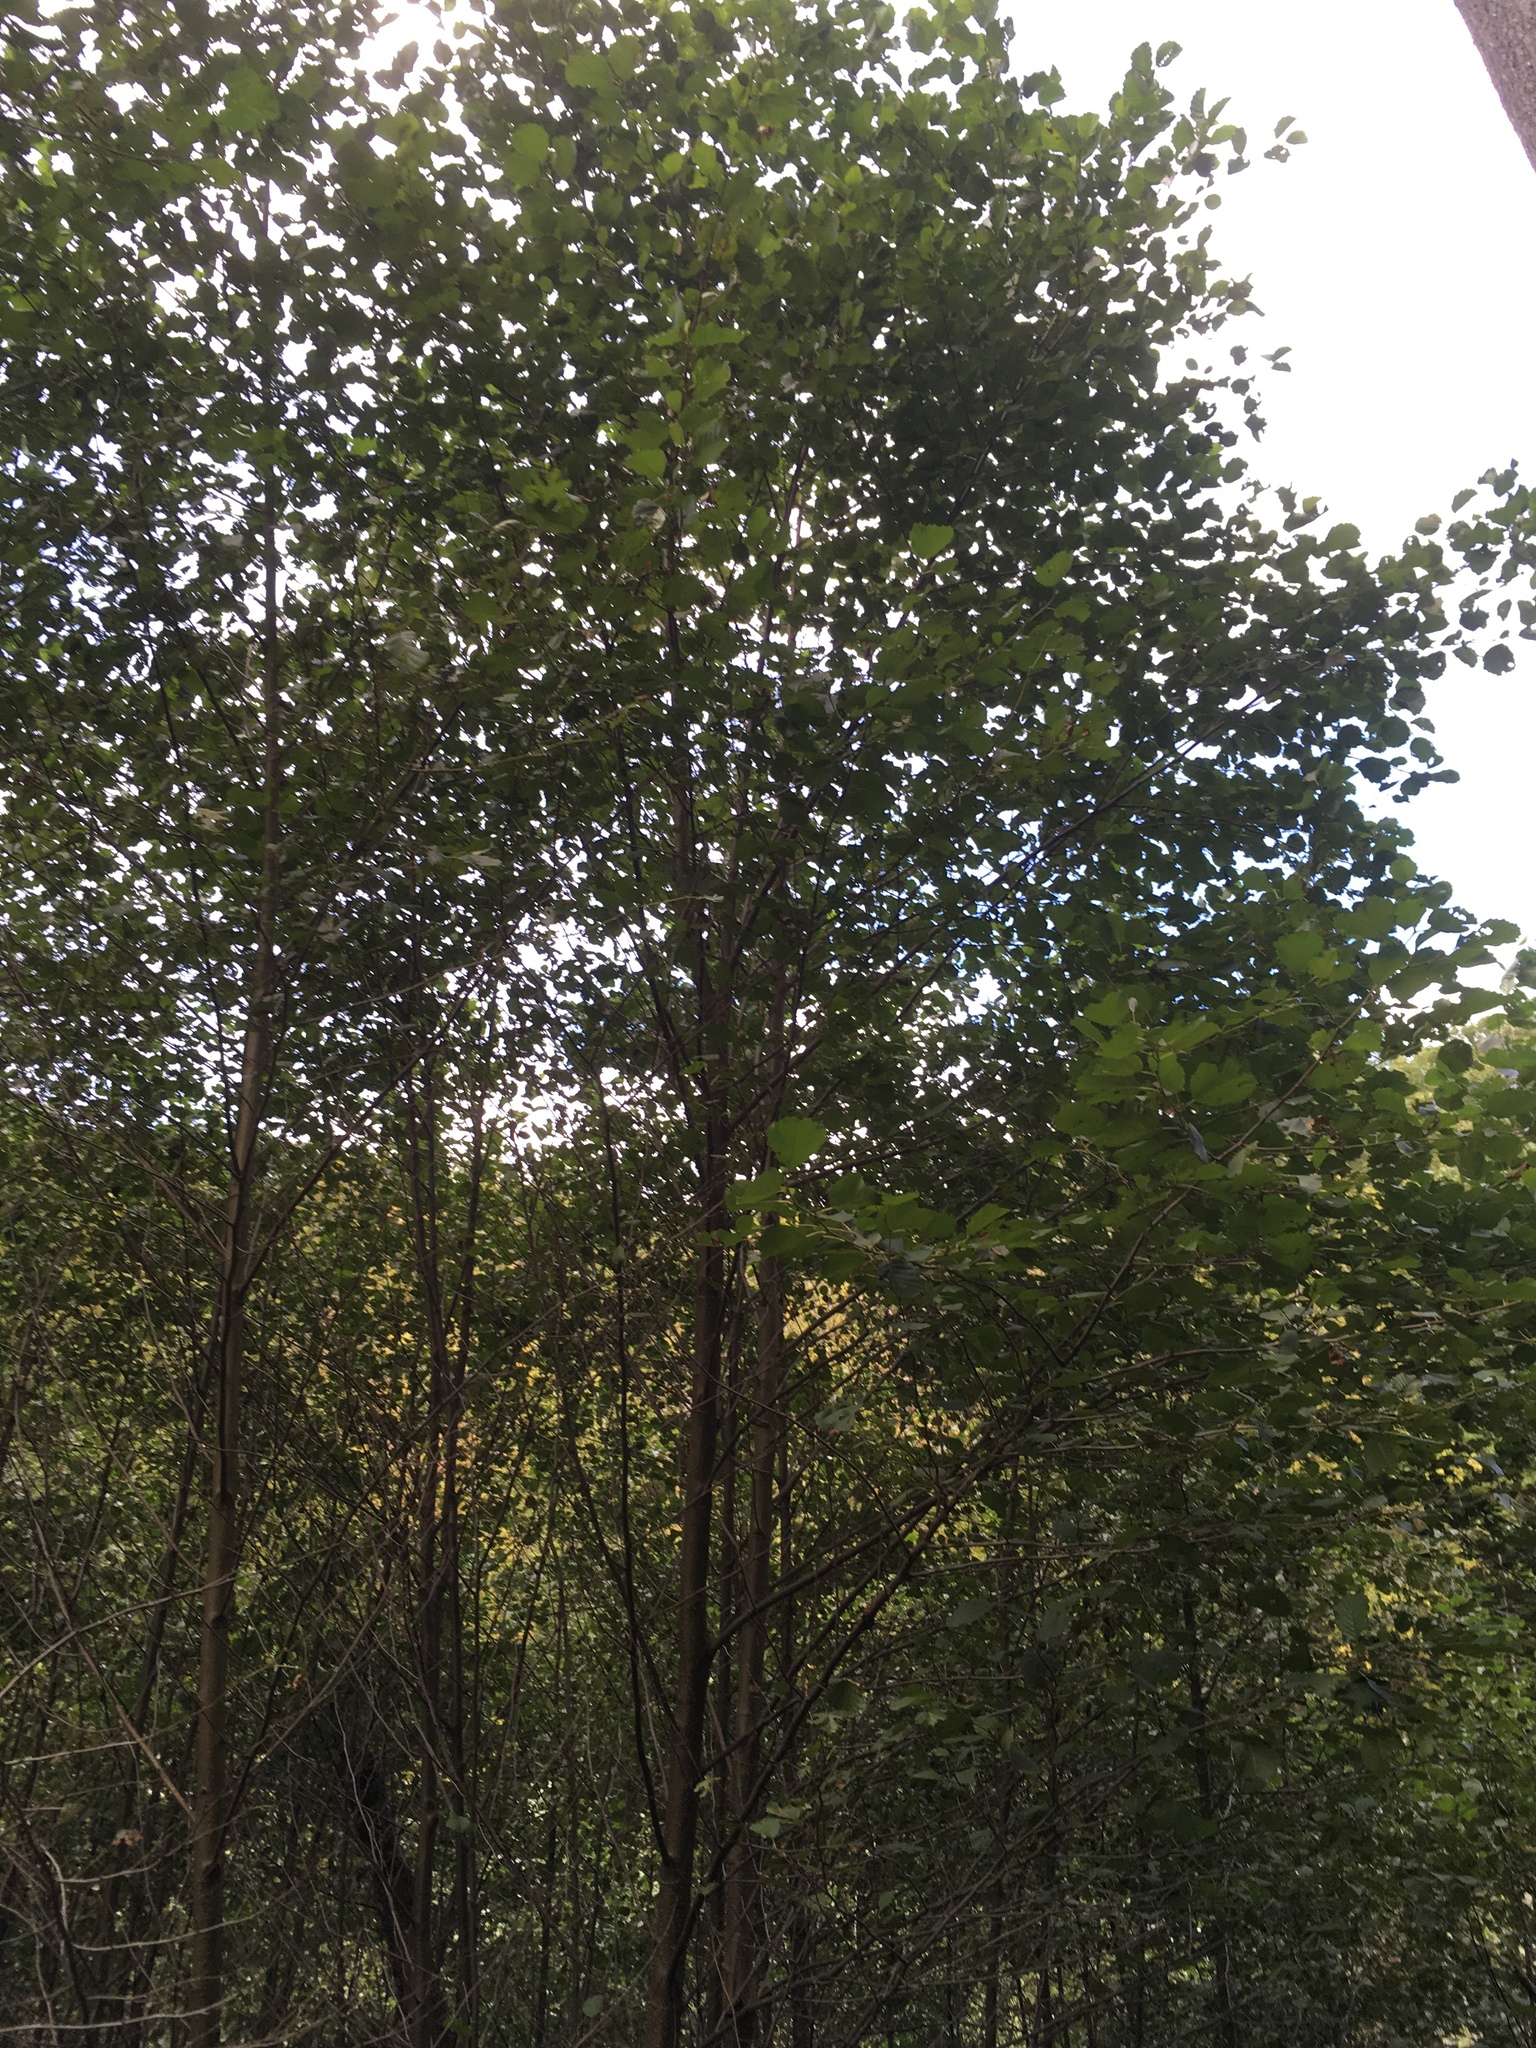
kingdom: Plantae
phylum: Tracheophyta
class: Magnoliopsida
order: Fagales
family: Betulaceae
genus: Alnus
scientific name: Alnus glutinosa
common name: Black alder
